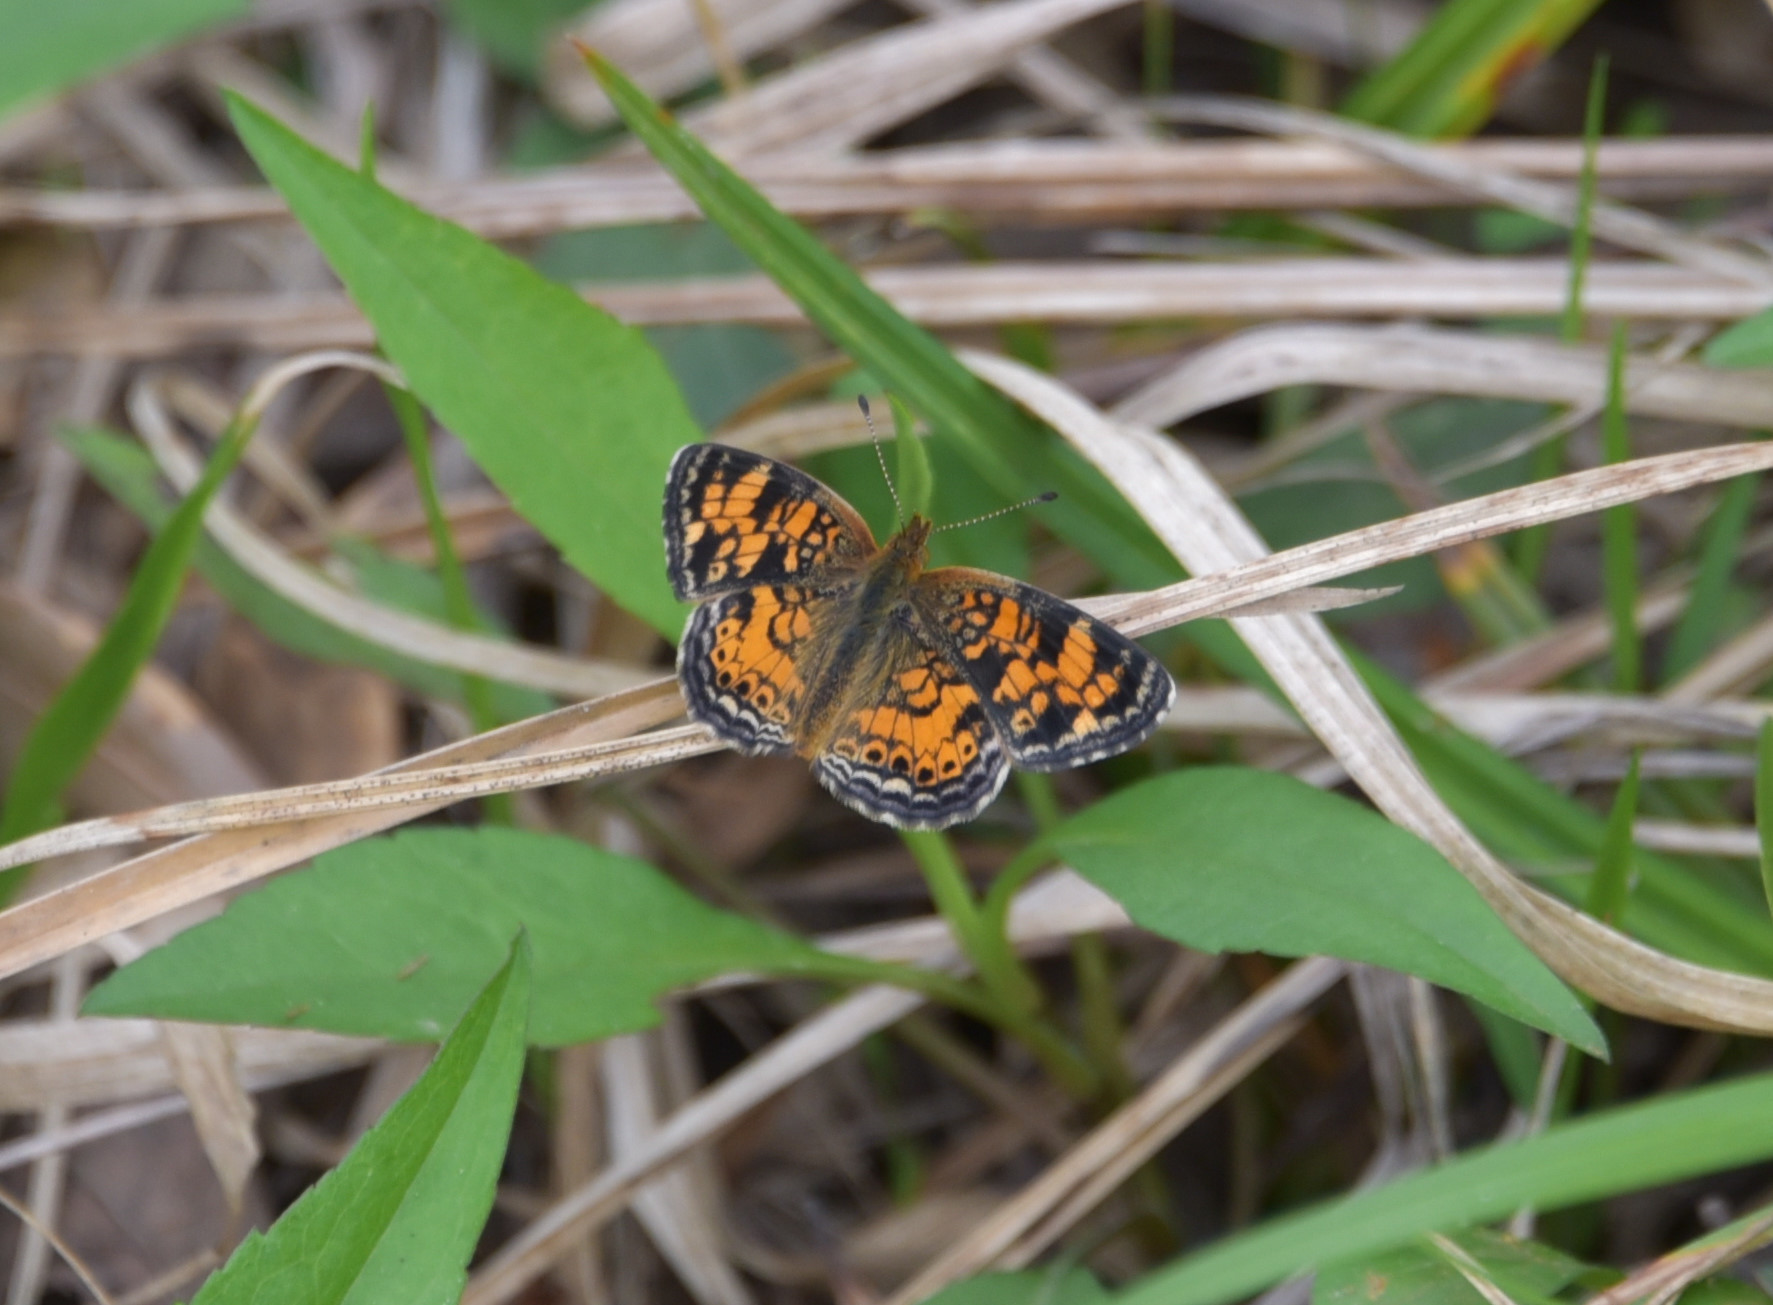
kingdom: Animalia
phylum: Arthropoda
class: Insecta
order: Lepidoptera
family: Nymphalidae
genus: Phyciodes
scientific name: Phyciodes tharos
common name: Pearl crescent
